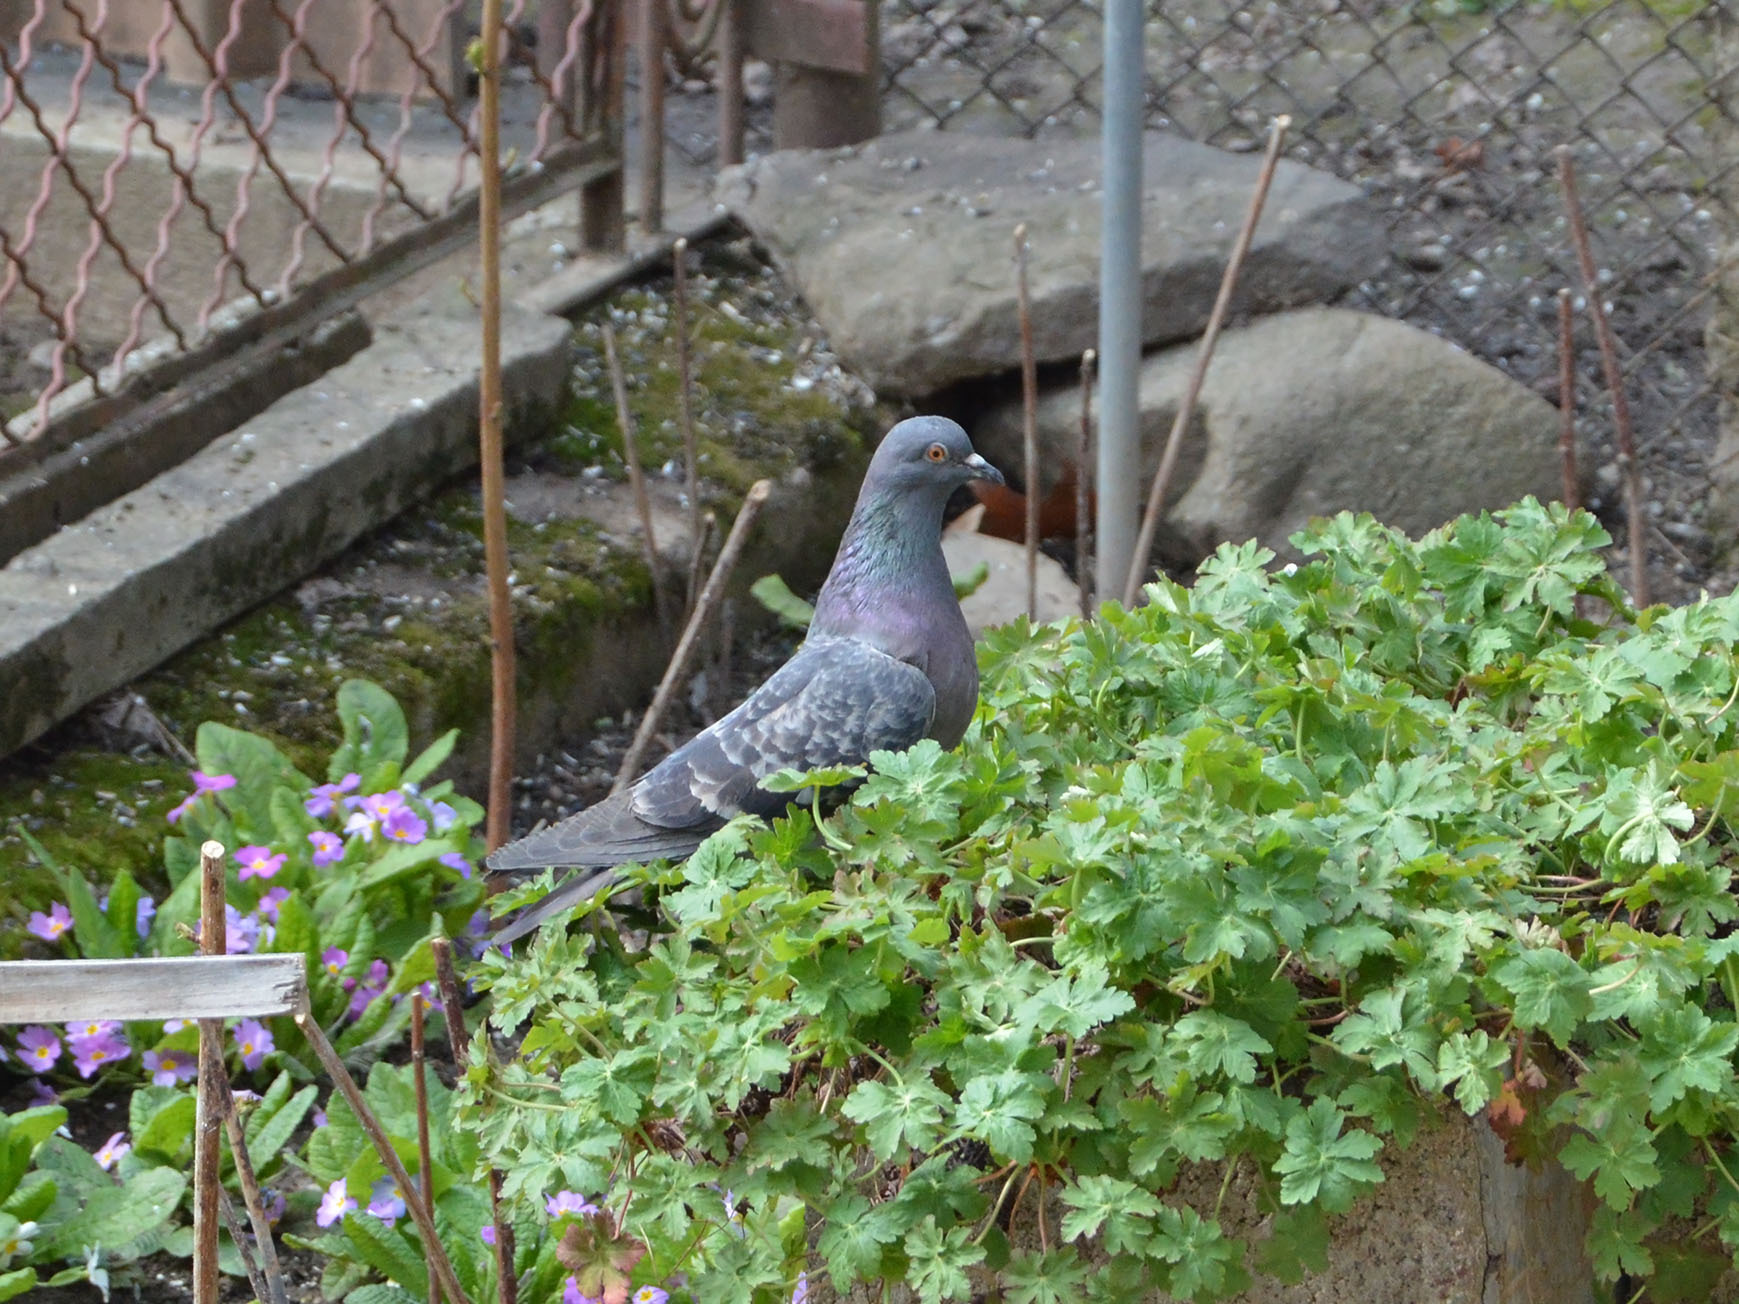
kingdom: Animalia
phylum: Chordata
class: Aves
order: Columbiformes
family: Columbidae
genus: Columba
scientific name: Columba livia
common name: Rock pigeon
